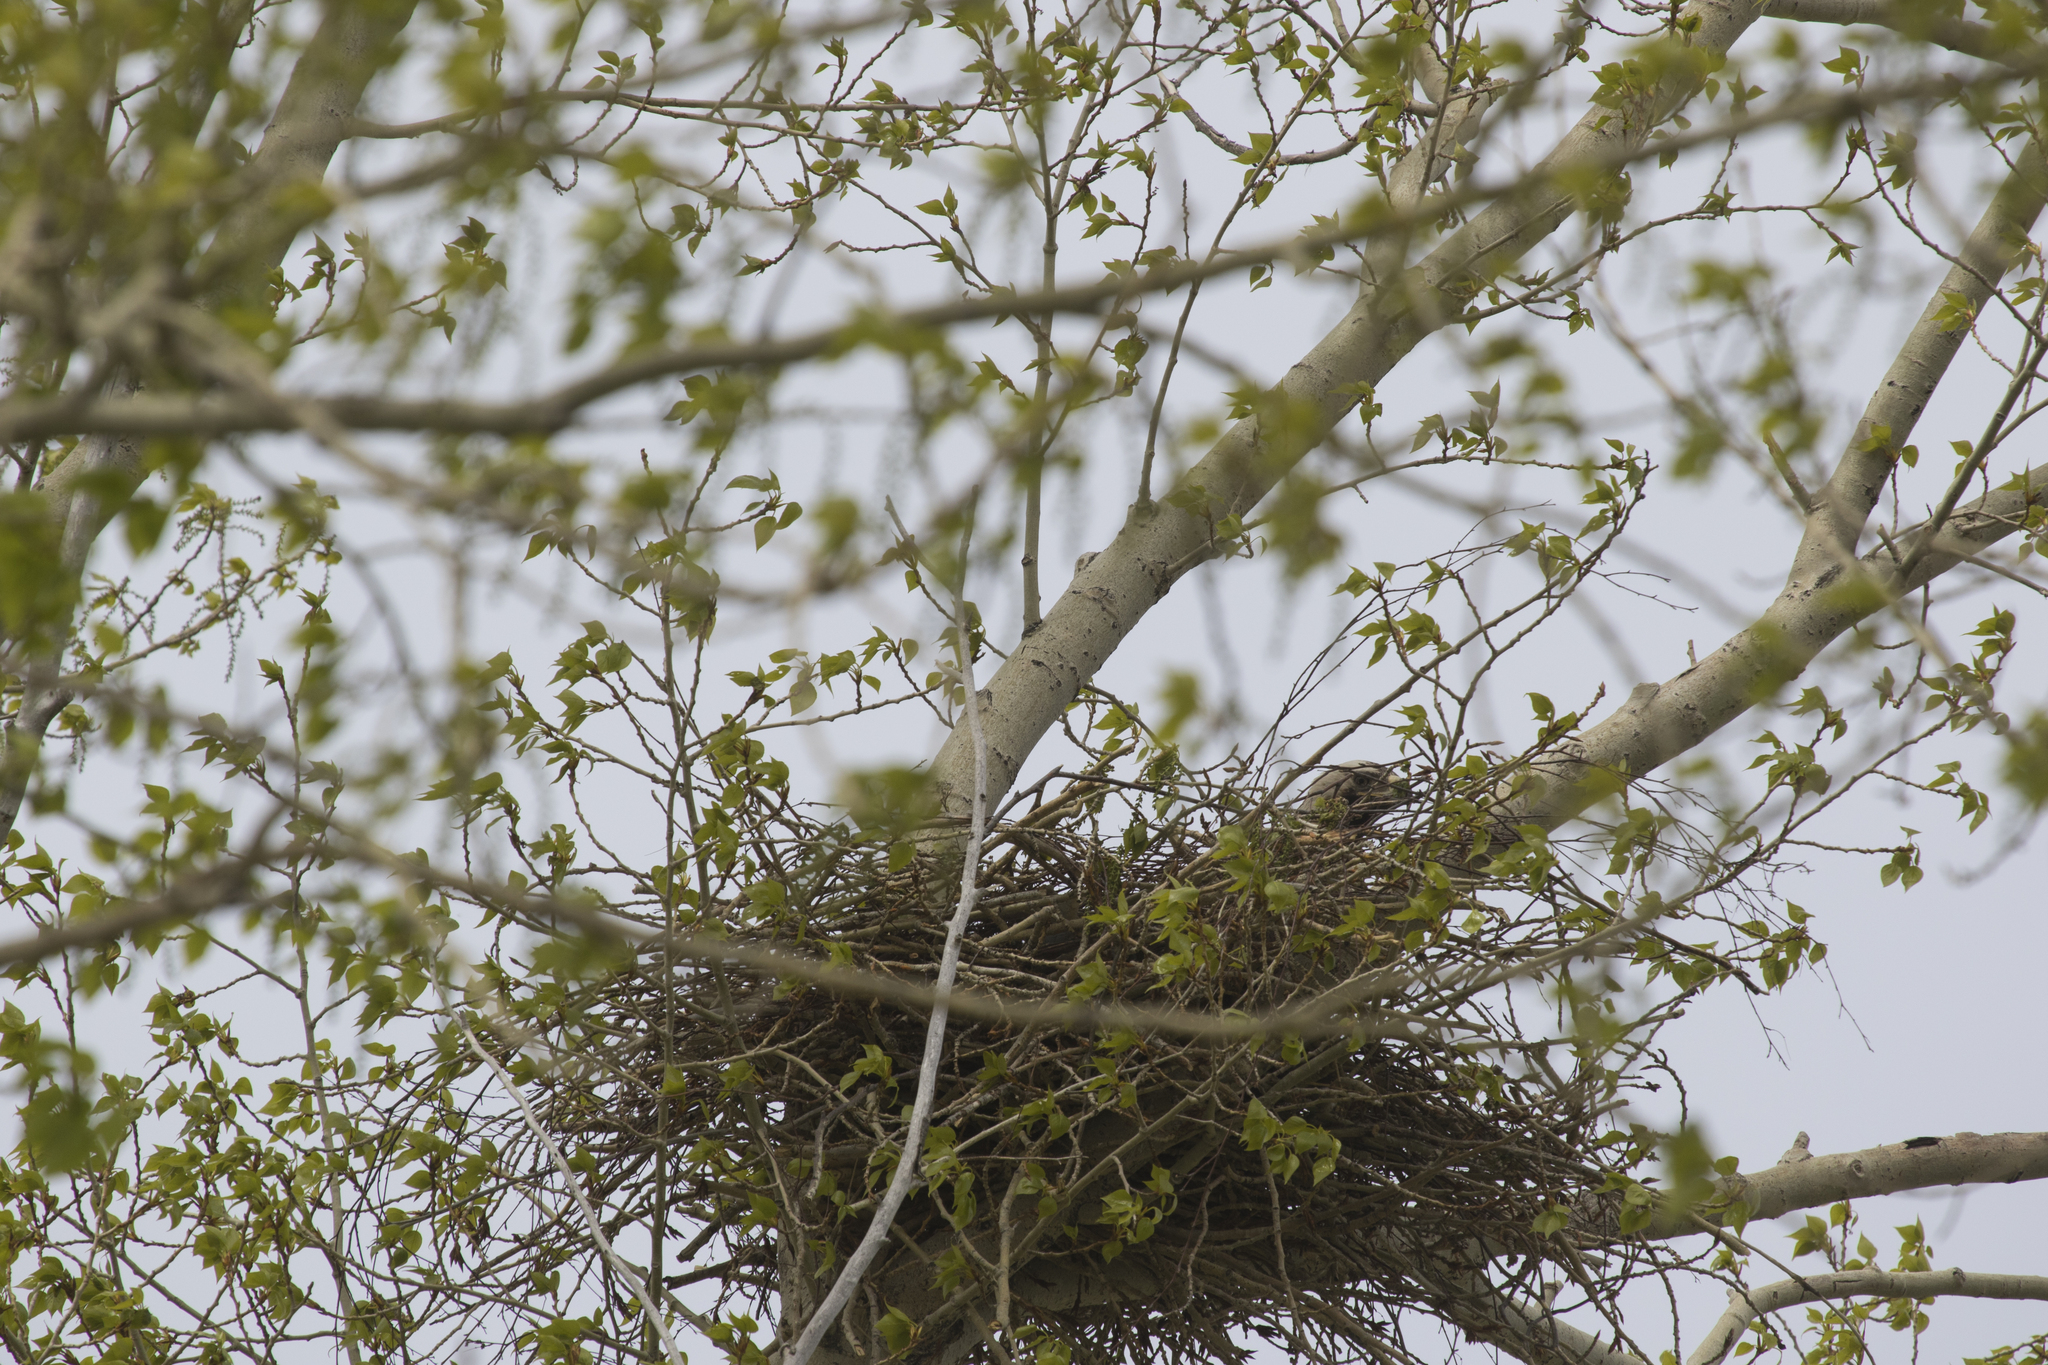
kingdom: Animalia
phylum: Chordata
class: Aves
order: Accipitriformes
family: Accipitridae
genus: Aquila
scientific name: Aquila heliaca
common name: Eastern imperial eagle
